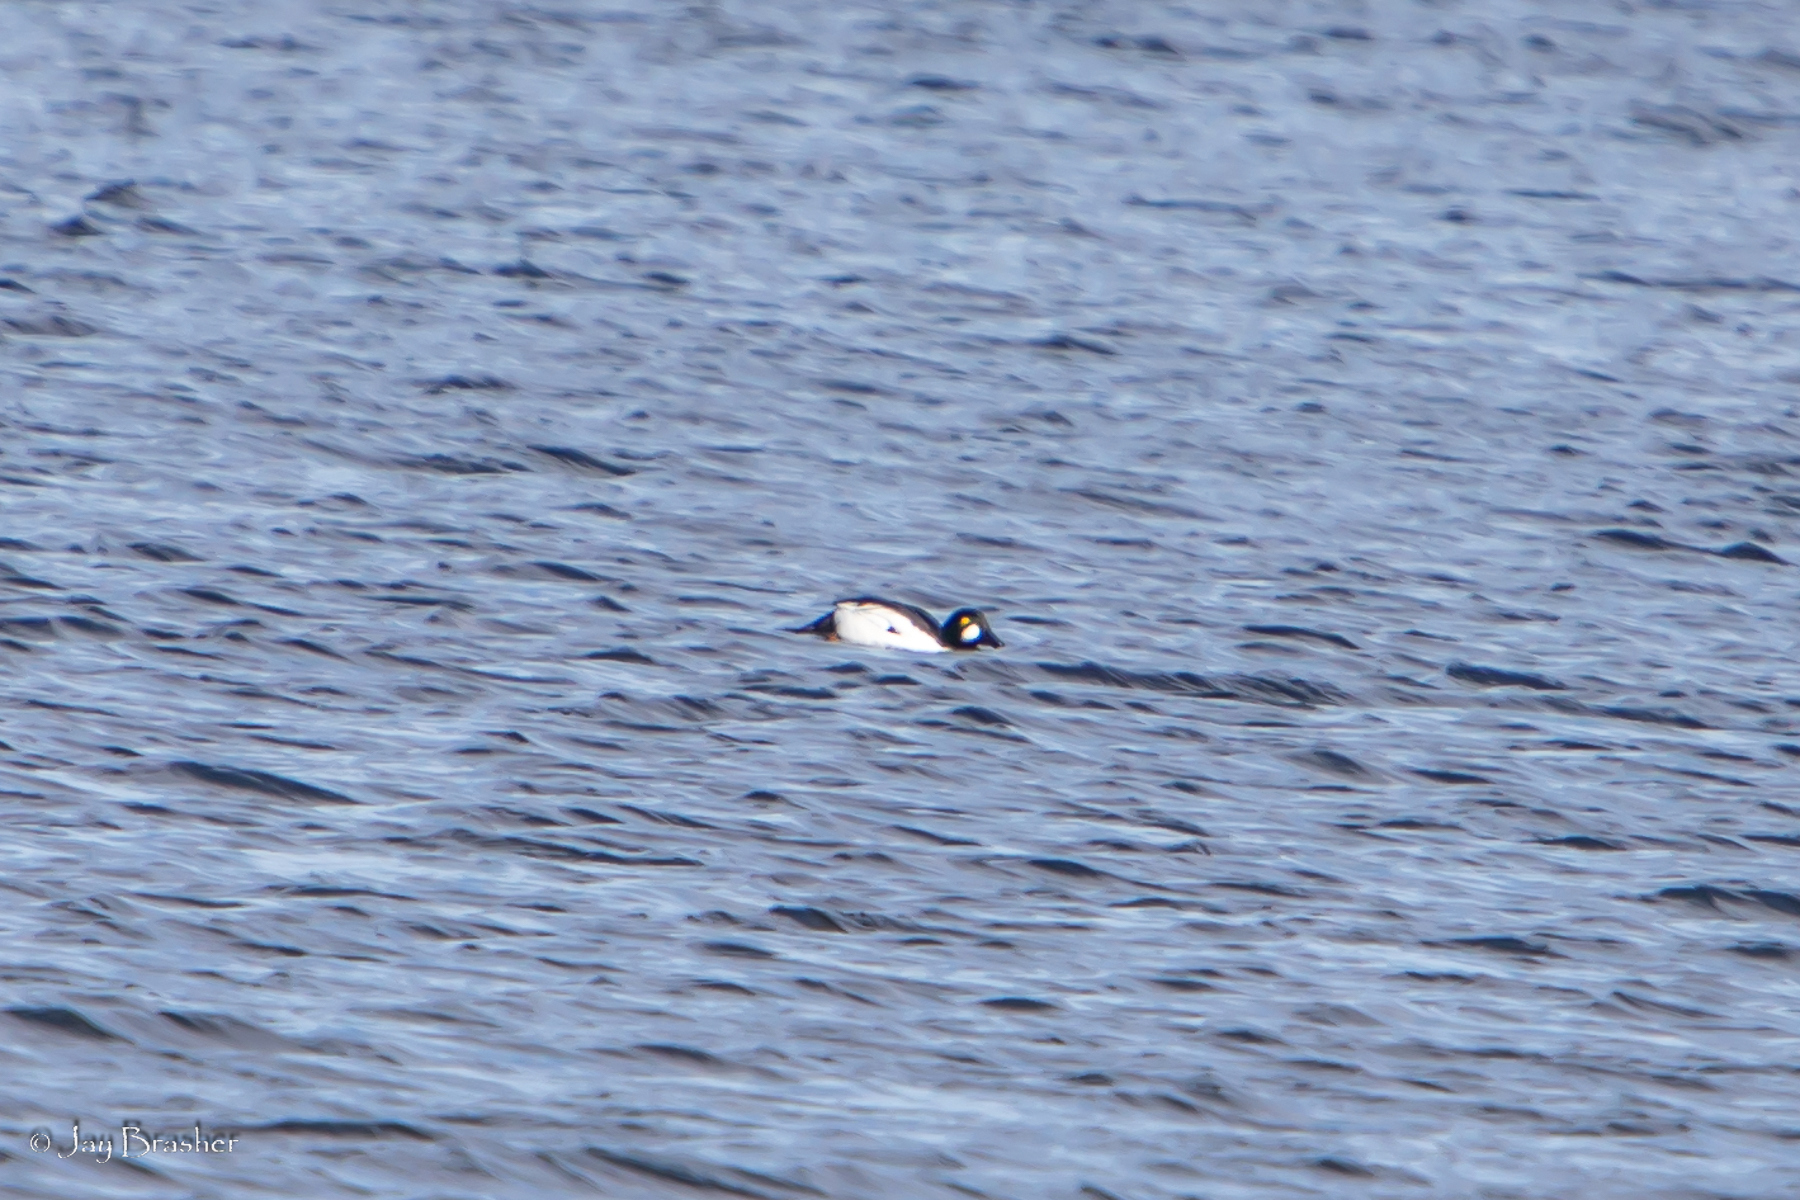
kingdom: Animalia
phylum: Chordata
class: Aves
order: Anseriformes
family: Anatidae
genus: Bucephala
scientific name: Bucephala clangula
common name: Common goldeneye
